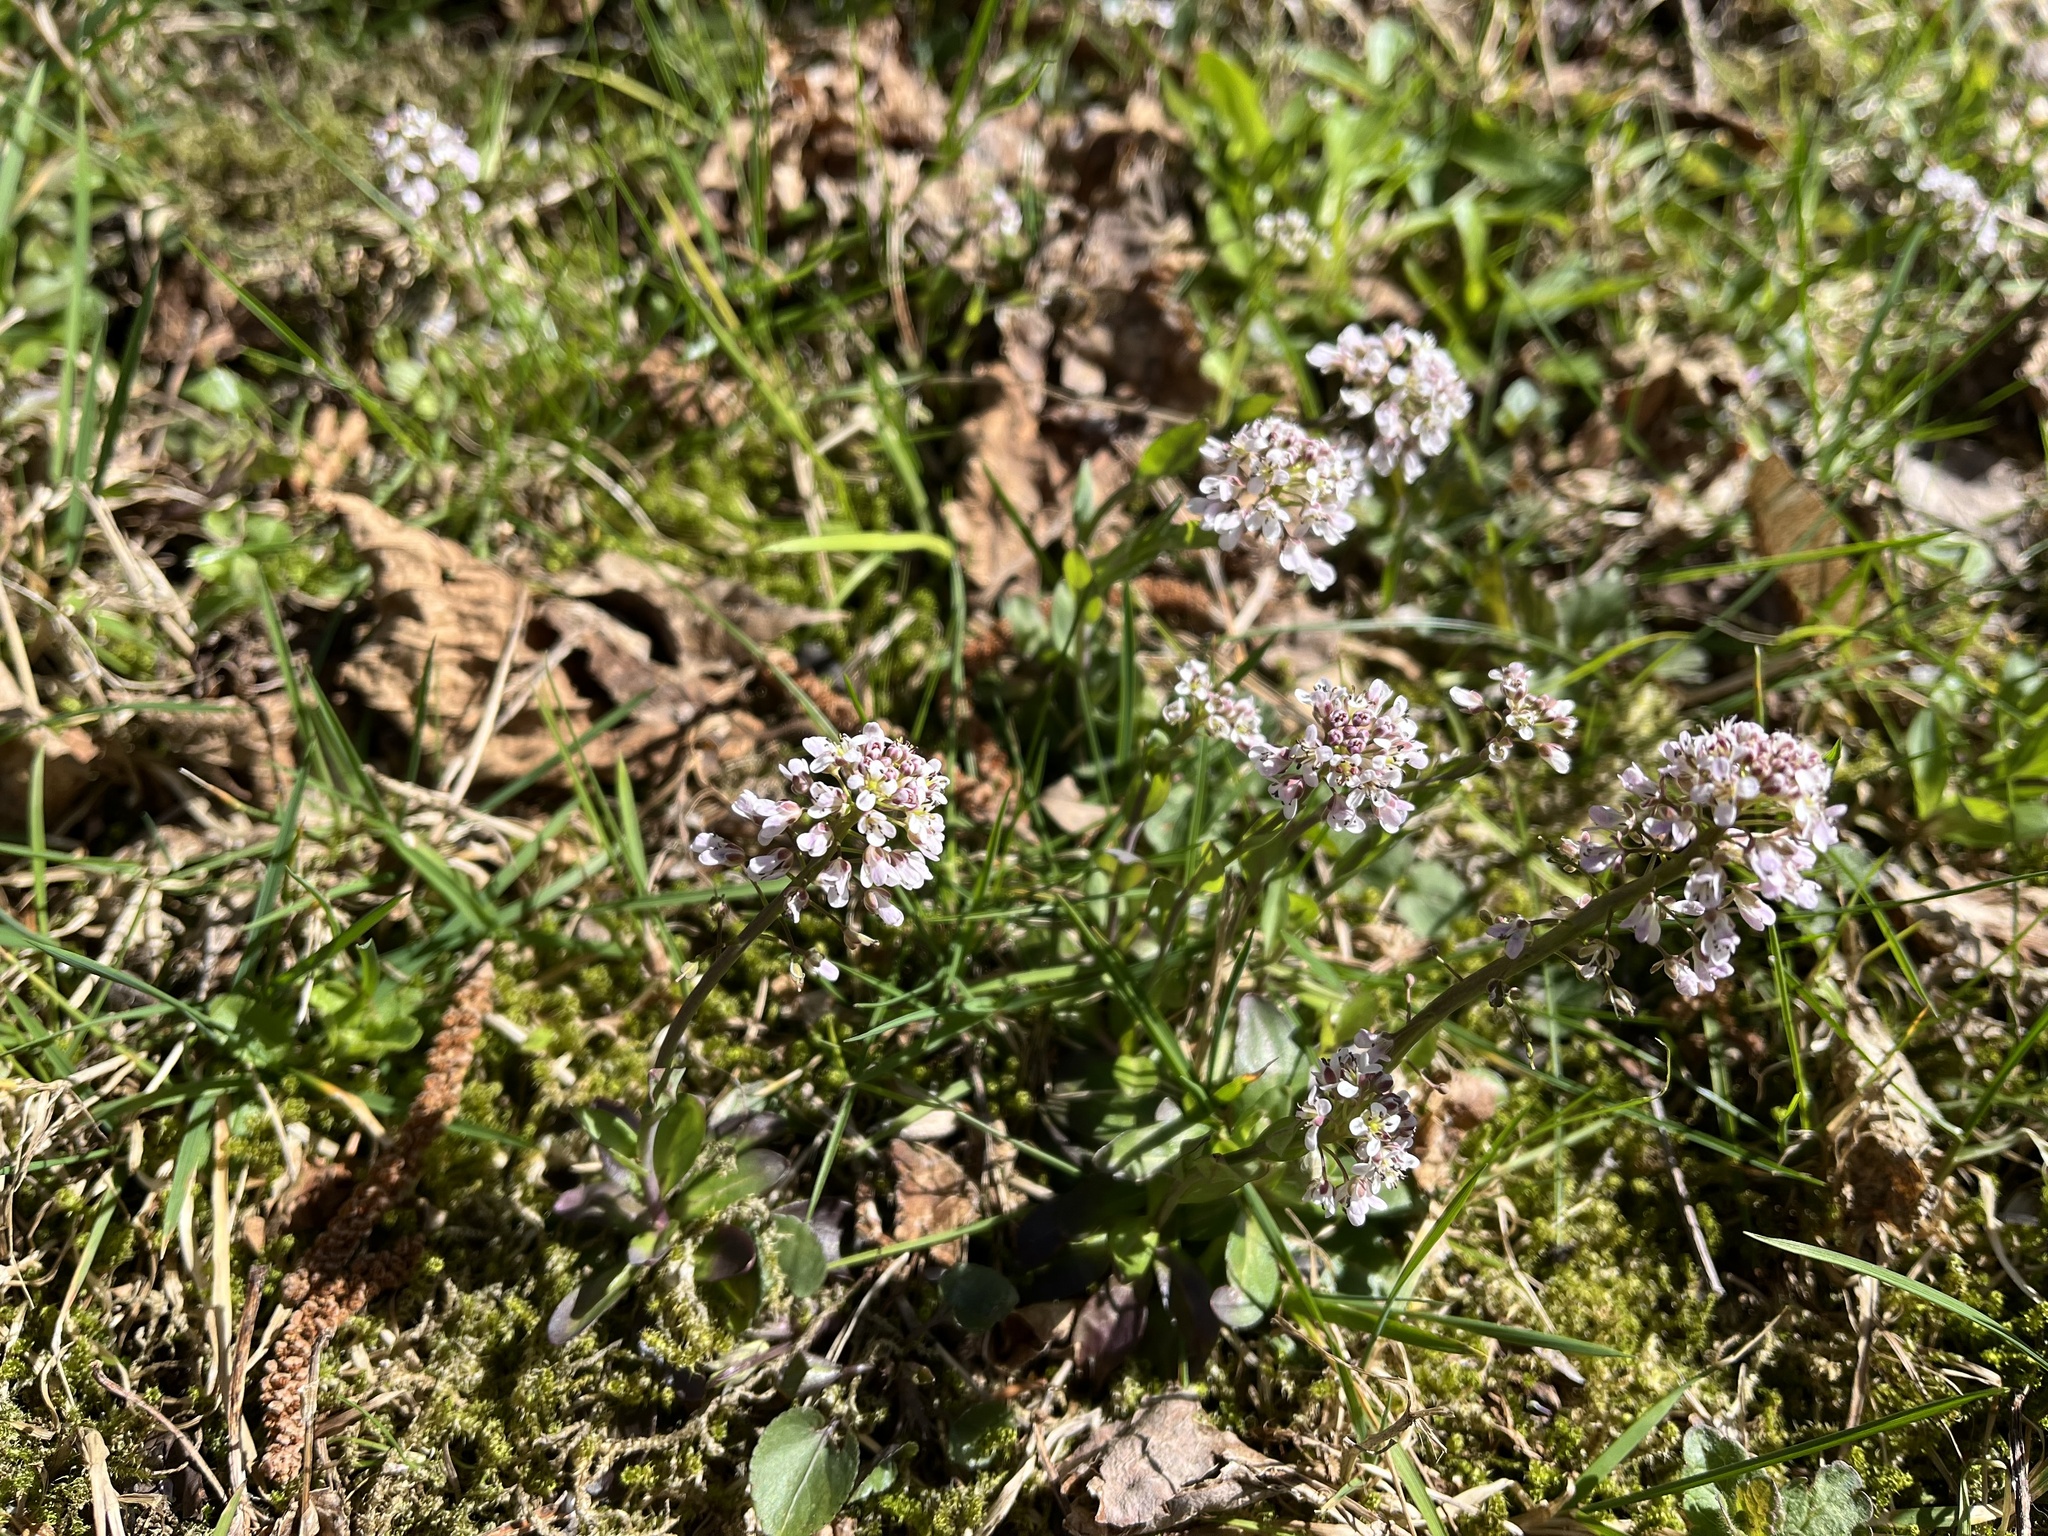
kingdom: Plantae
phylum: Tracheophyta
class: Magnoliopsida
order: Brassicales
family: Brassicaceae
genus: Noccaea
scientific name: Noccaea caerulescens
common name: Alpine pennycress
